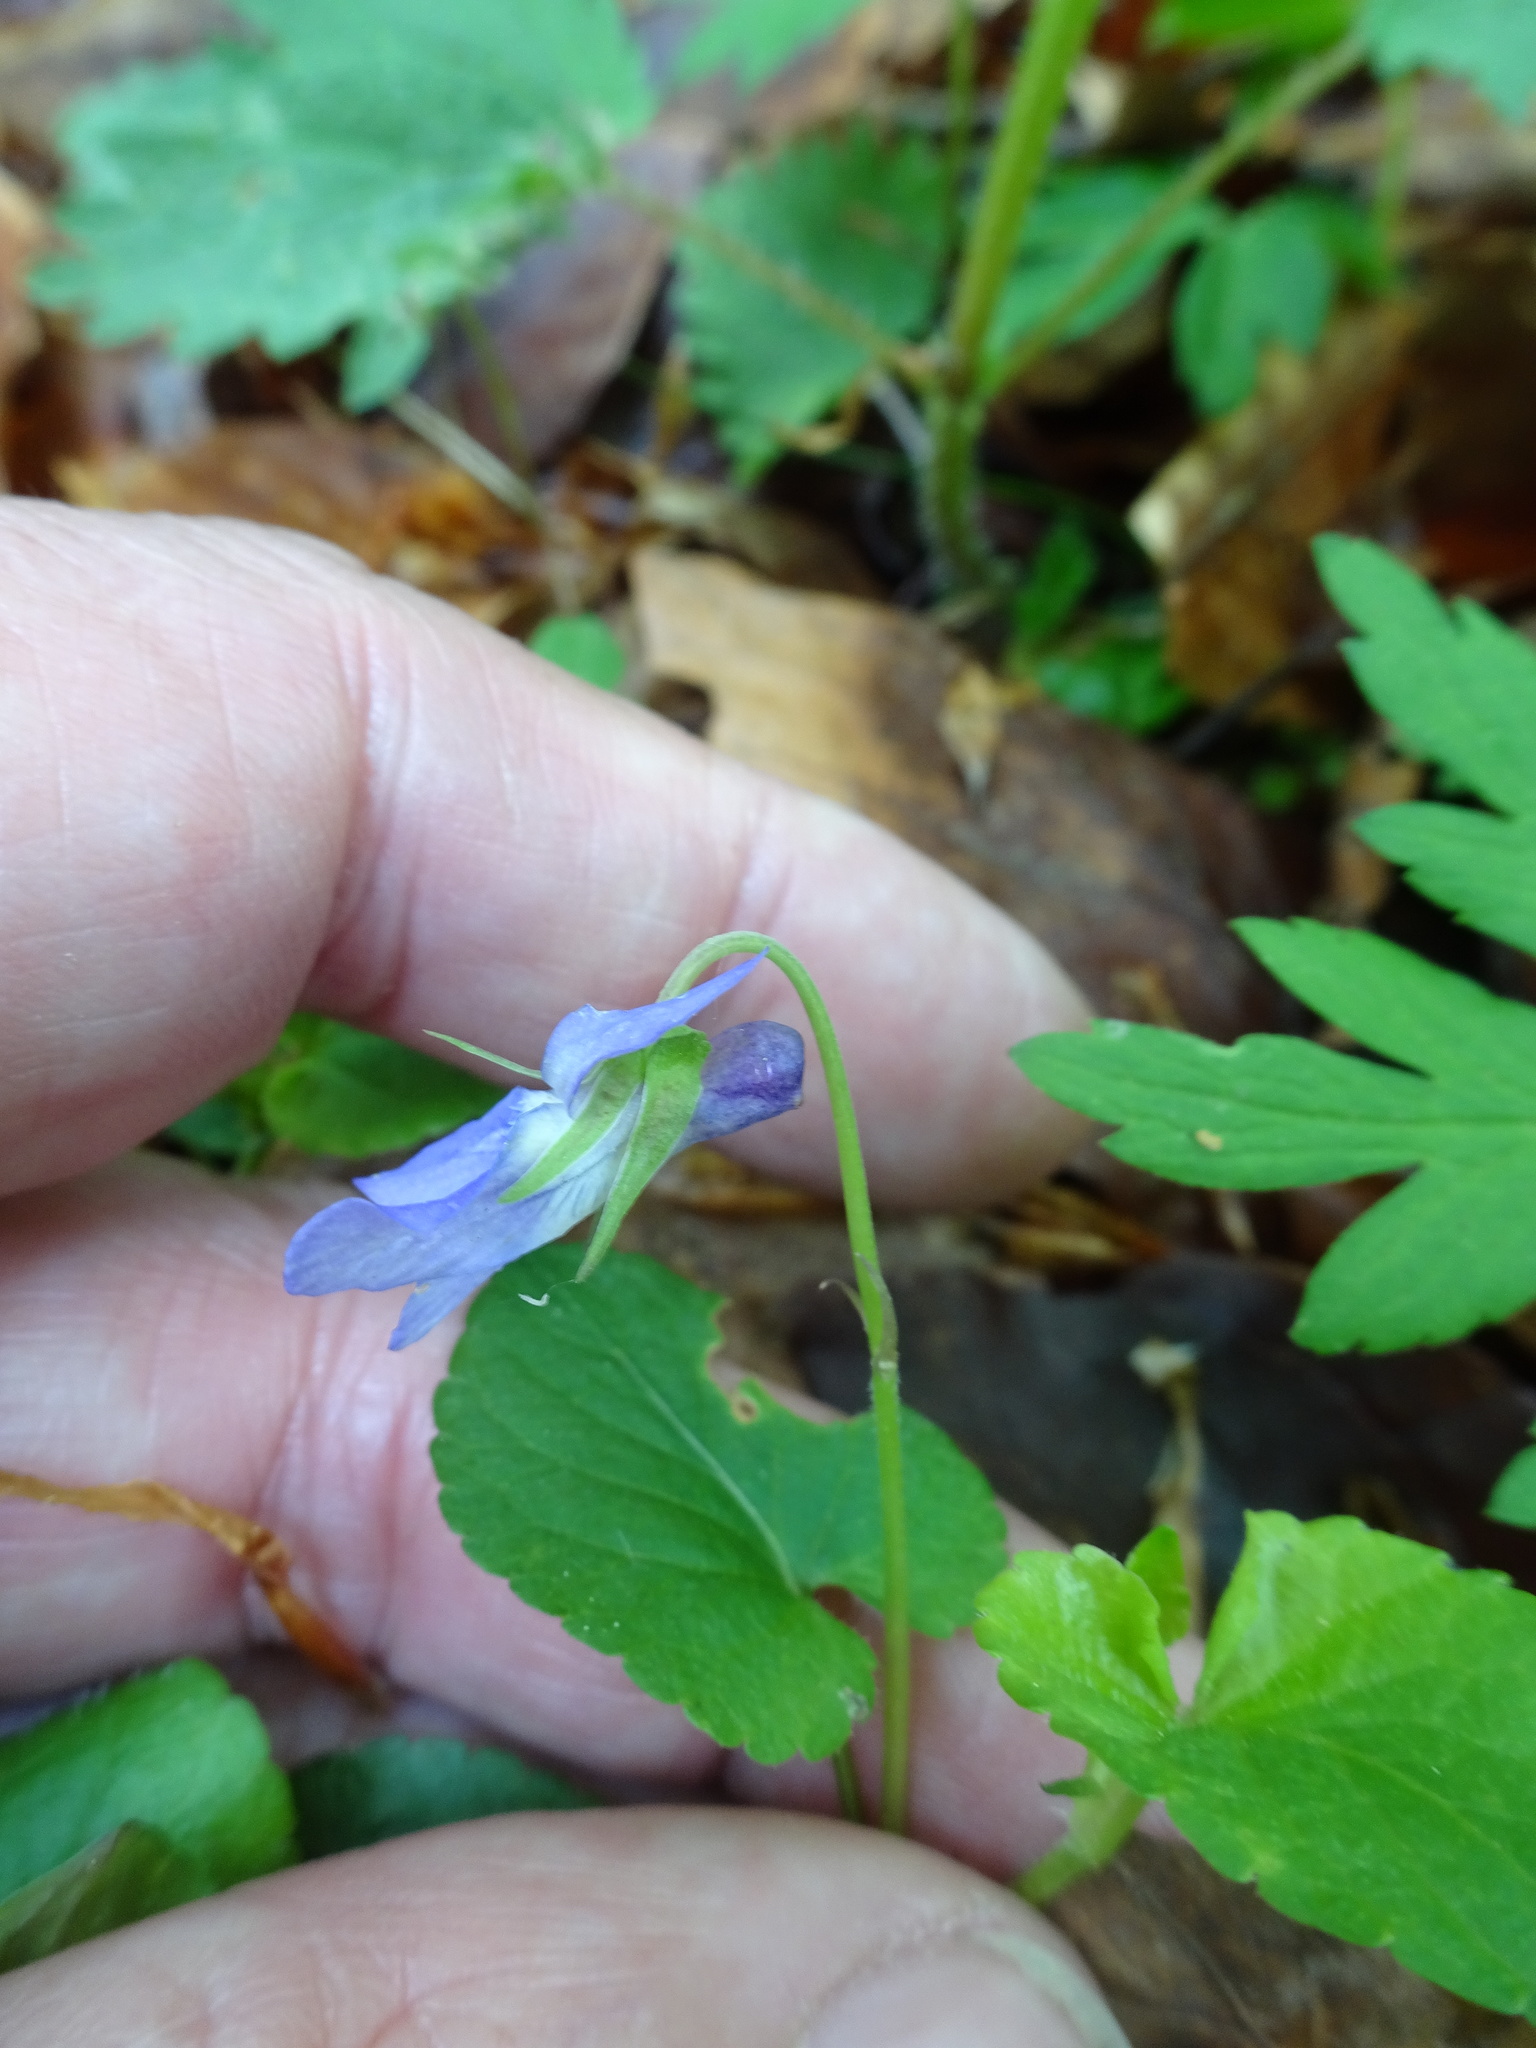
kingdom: Plantae
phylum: Tracheophyta
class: Magnoliopsida
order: Malpighiales
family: Violaceae
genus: Viola
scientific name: Viola reichenbachiana
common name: Early dog-violet
